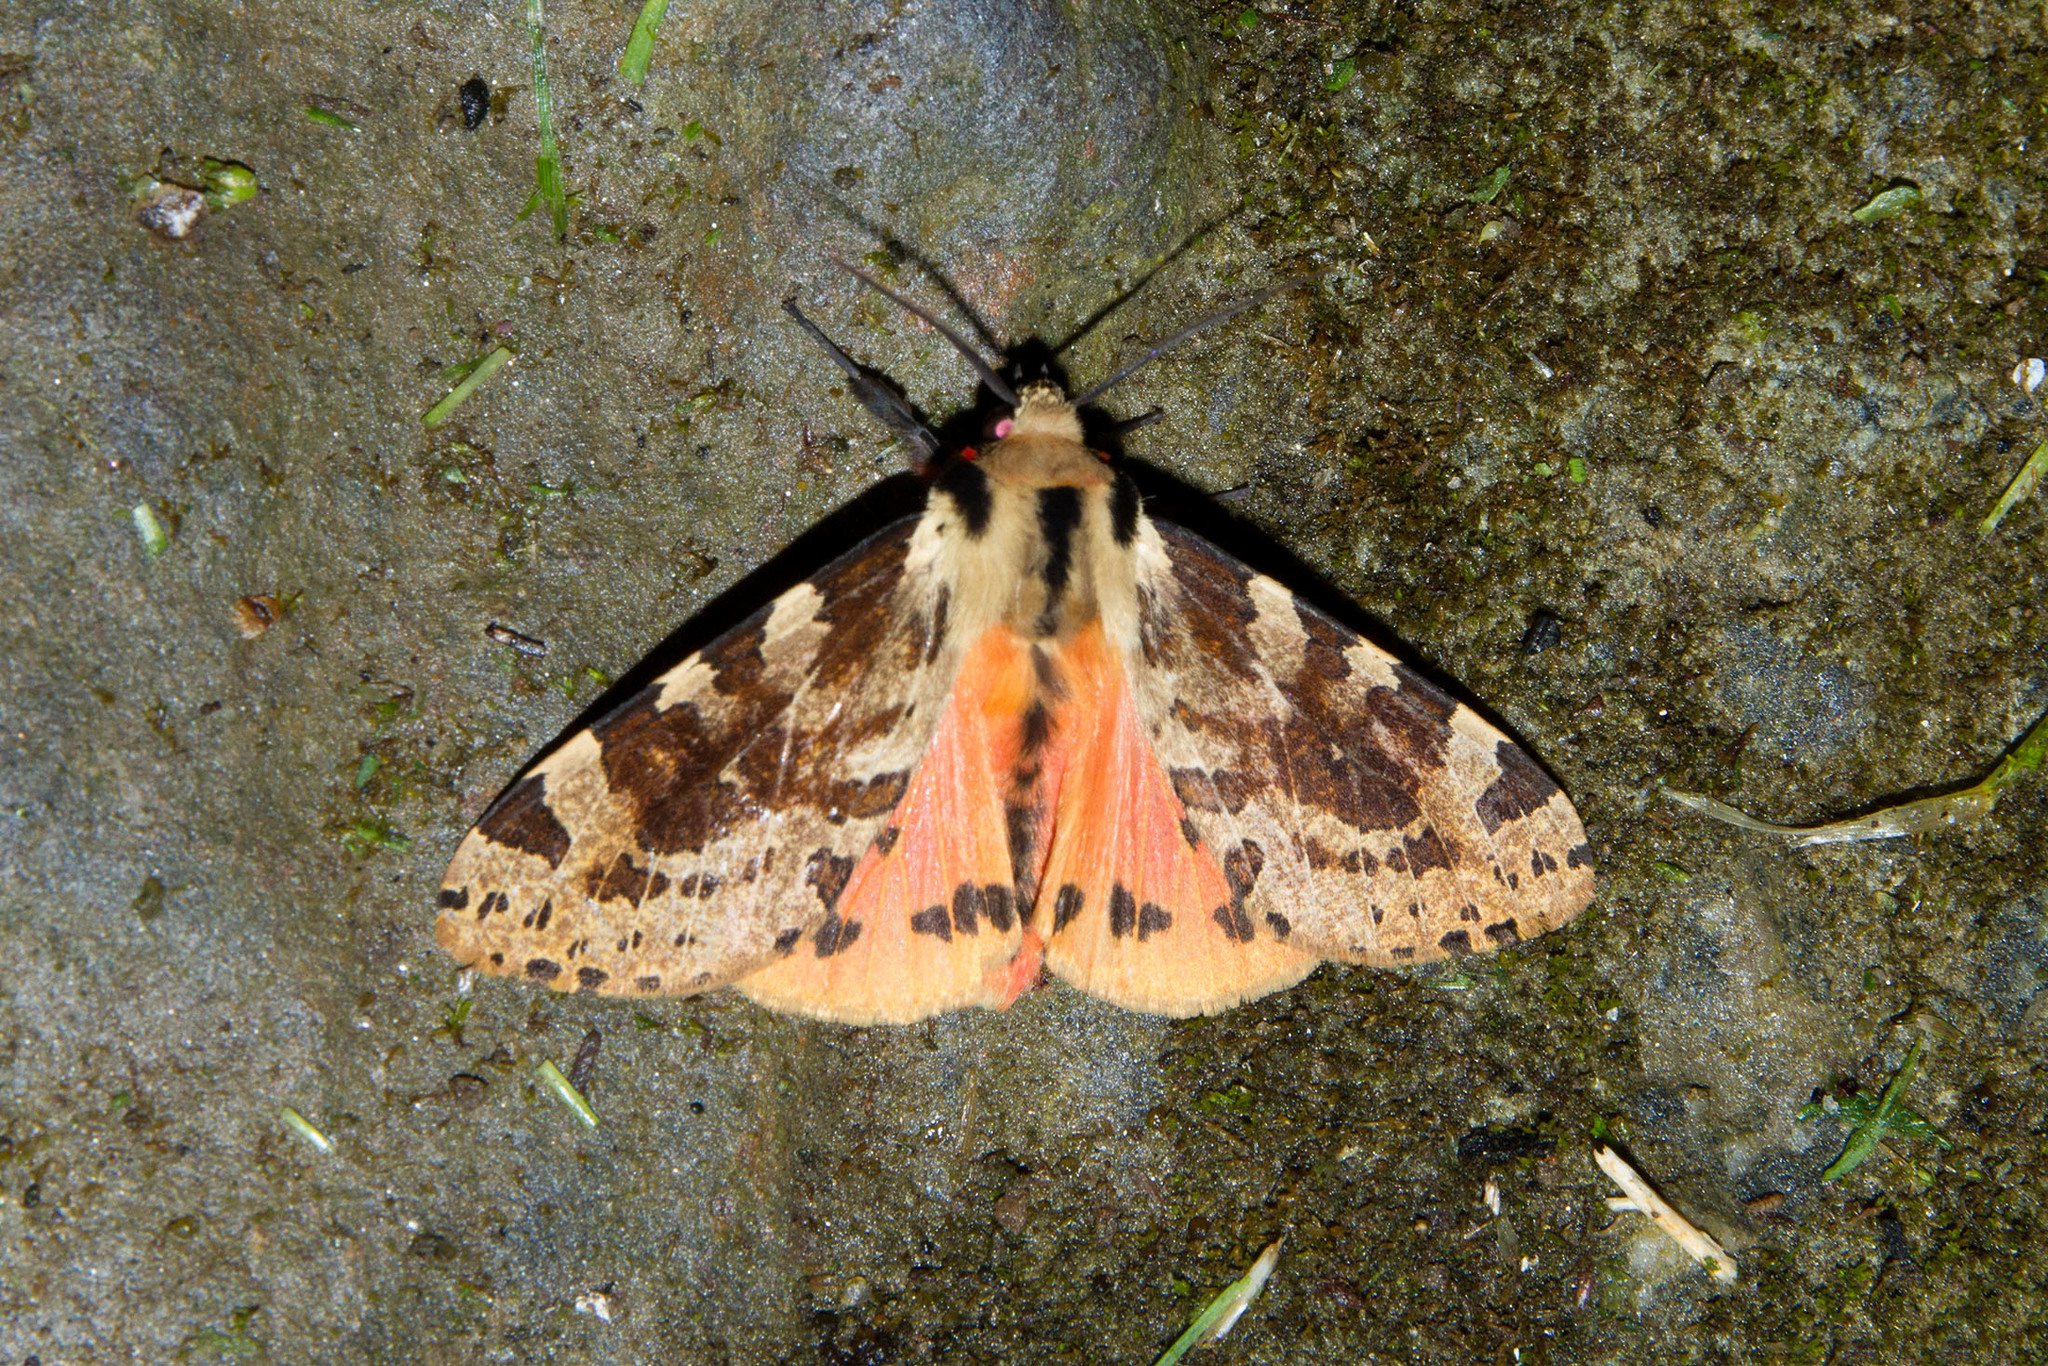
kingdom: Animalia
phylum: Arthropoda
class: Insecta
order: Lepidoptera
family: Erebidae
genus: Spilosoma
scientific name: Spilosoma kebea
